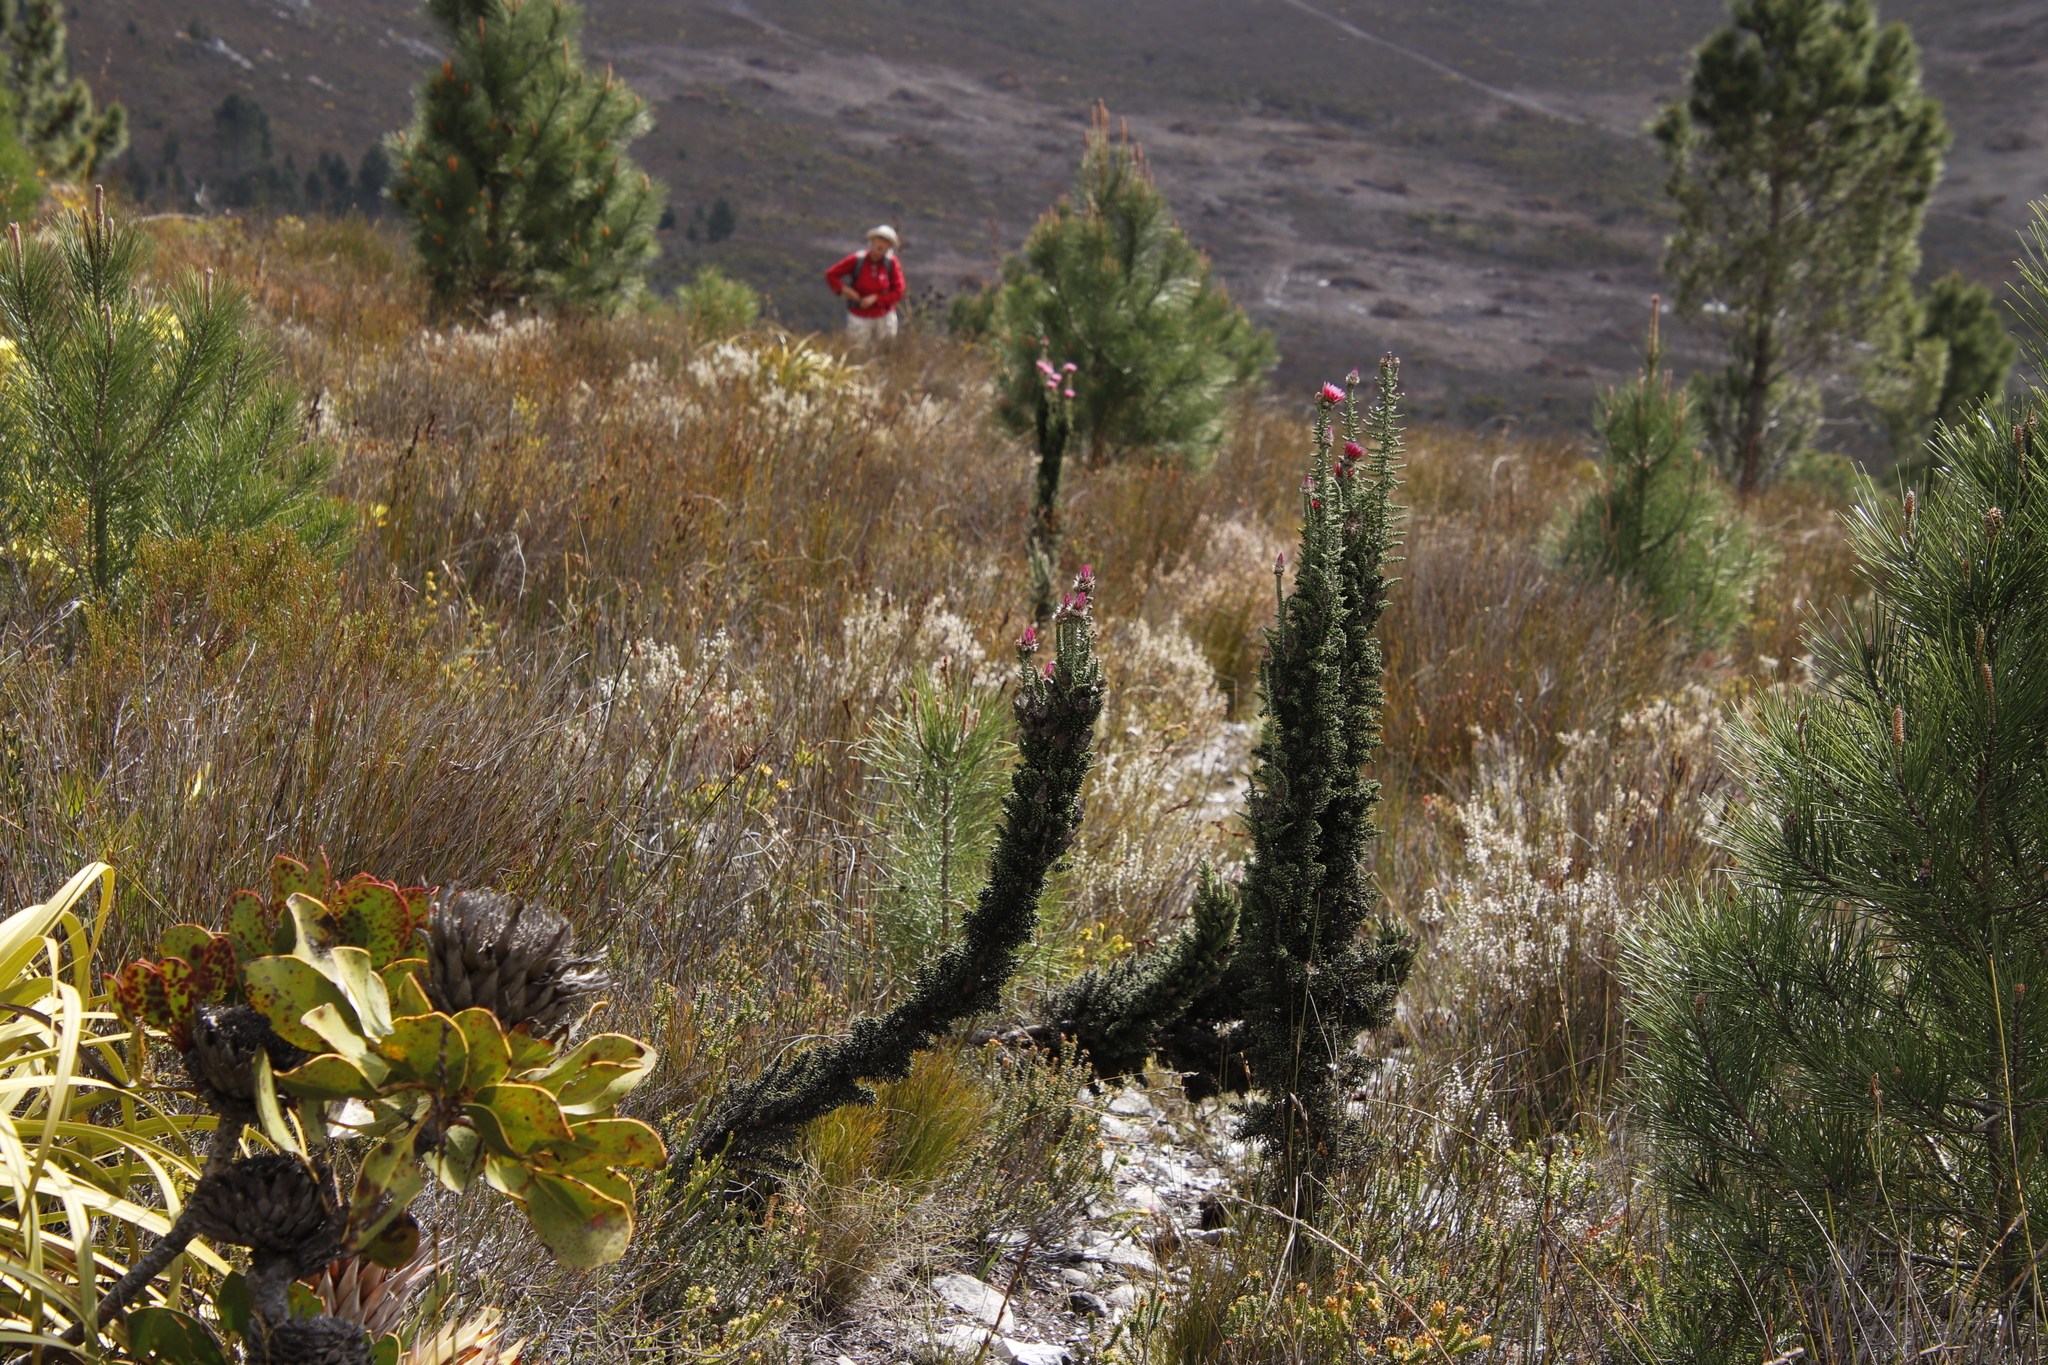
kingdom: Plantae
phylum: Tracheophyta
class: Magnoliopsida
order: Asterales
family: Asteraceae
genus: Phaenocoma
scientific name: Phaenocoma prolifera
